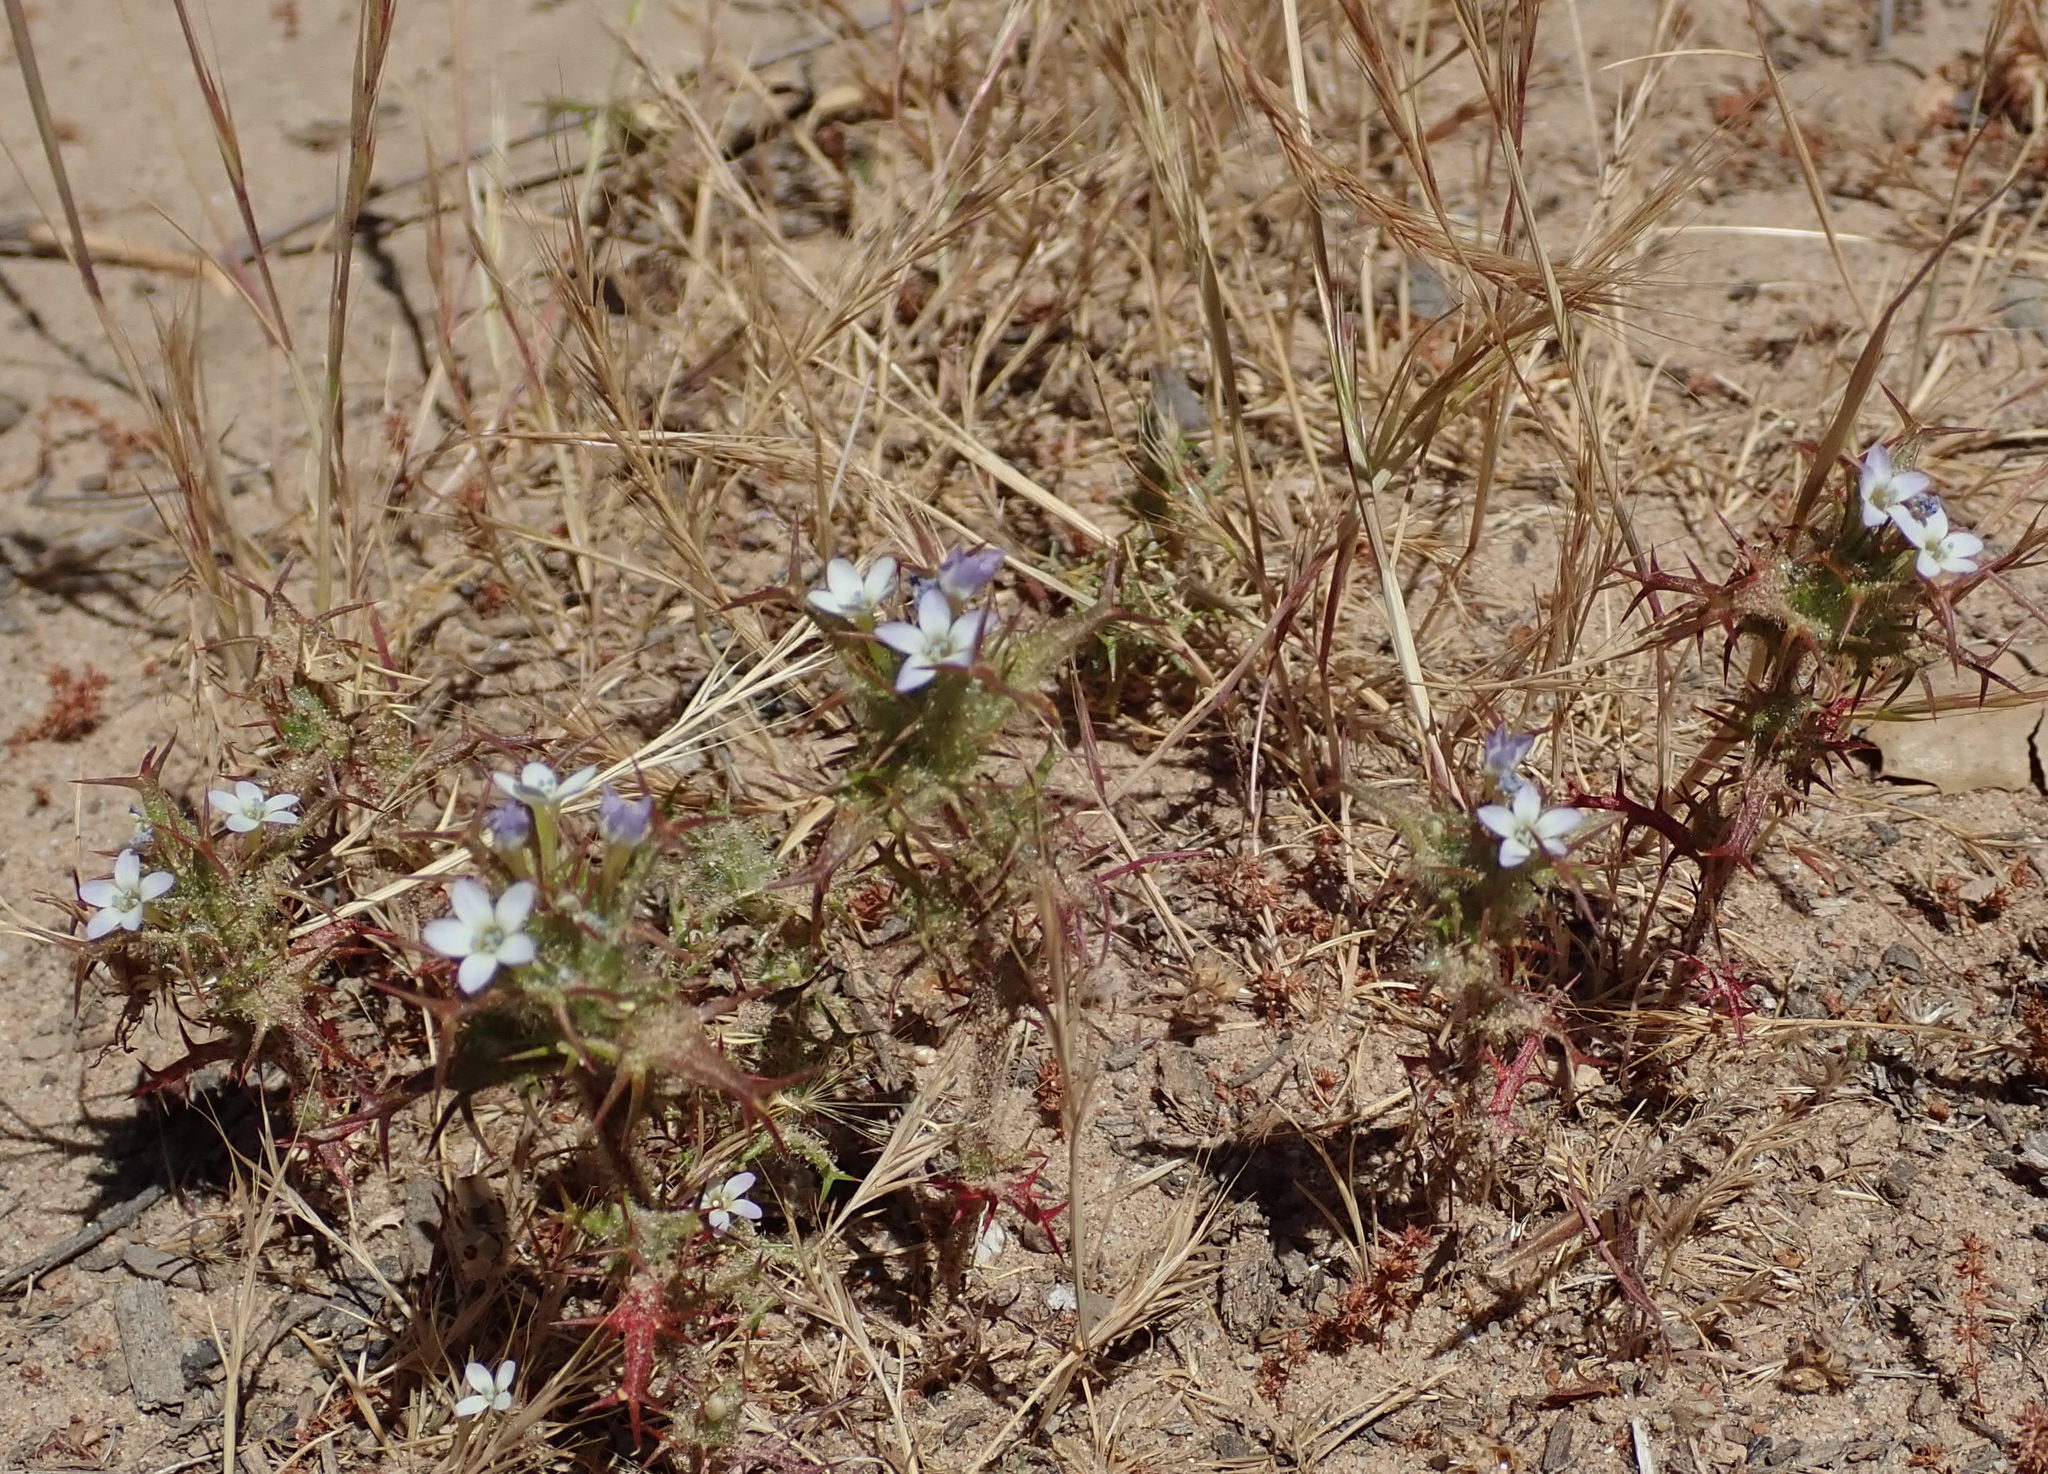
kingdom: Plantae
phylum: Tracheophyta
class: Magnoliopsida
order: Ericales
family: Polemoniaceae
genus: Navarretia
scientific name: Navarretia hamata
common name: Hooked navarretia
